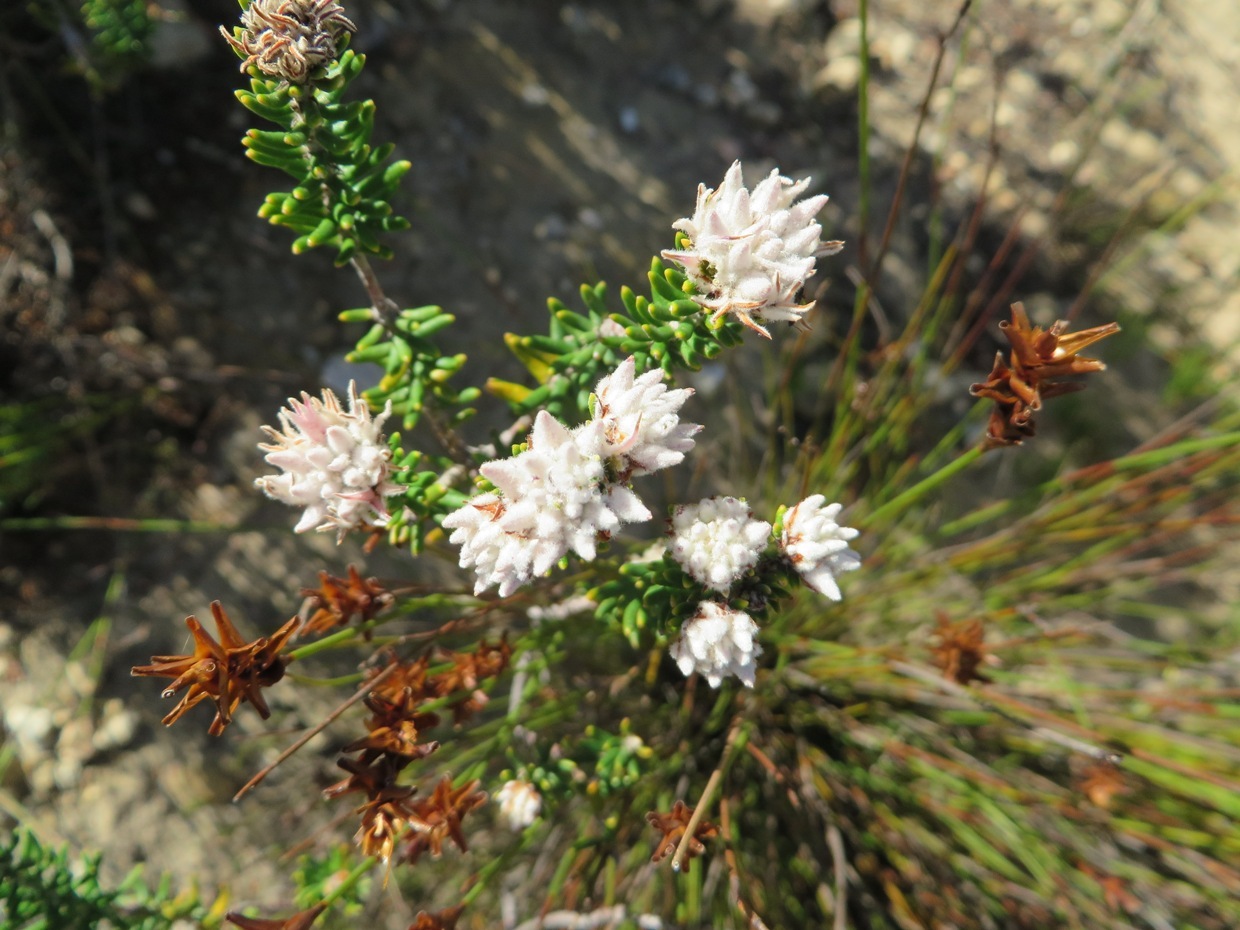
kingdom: Plantae
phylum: Tracheophyta
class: Magnoliopsida
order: Rosales
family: Rhamnaceae
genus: Trichocephalus
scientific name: Trichocephalus stipularis
